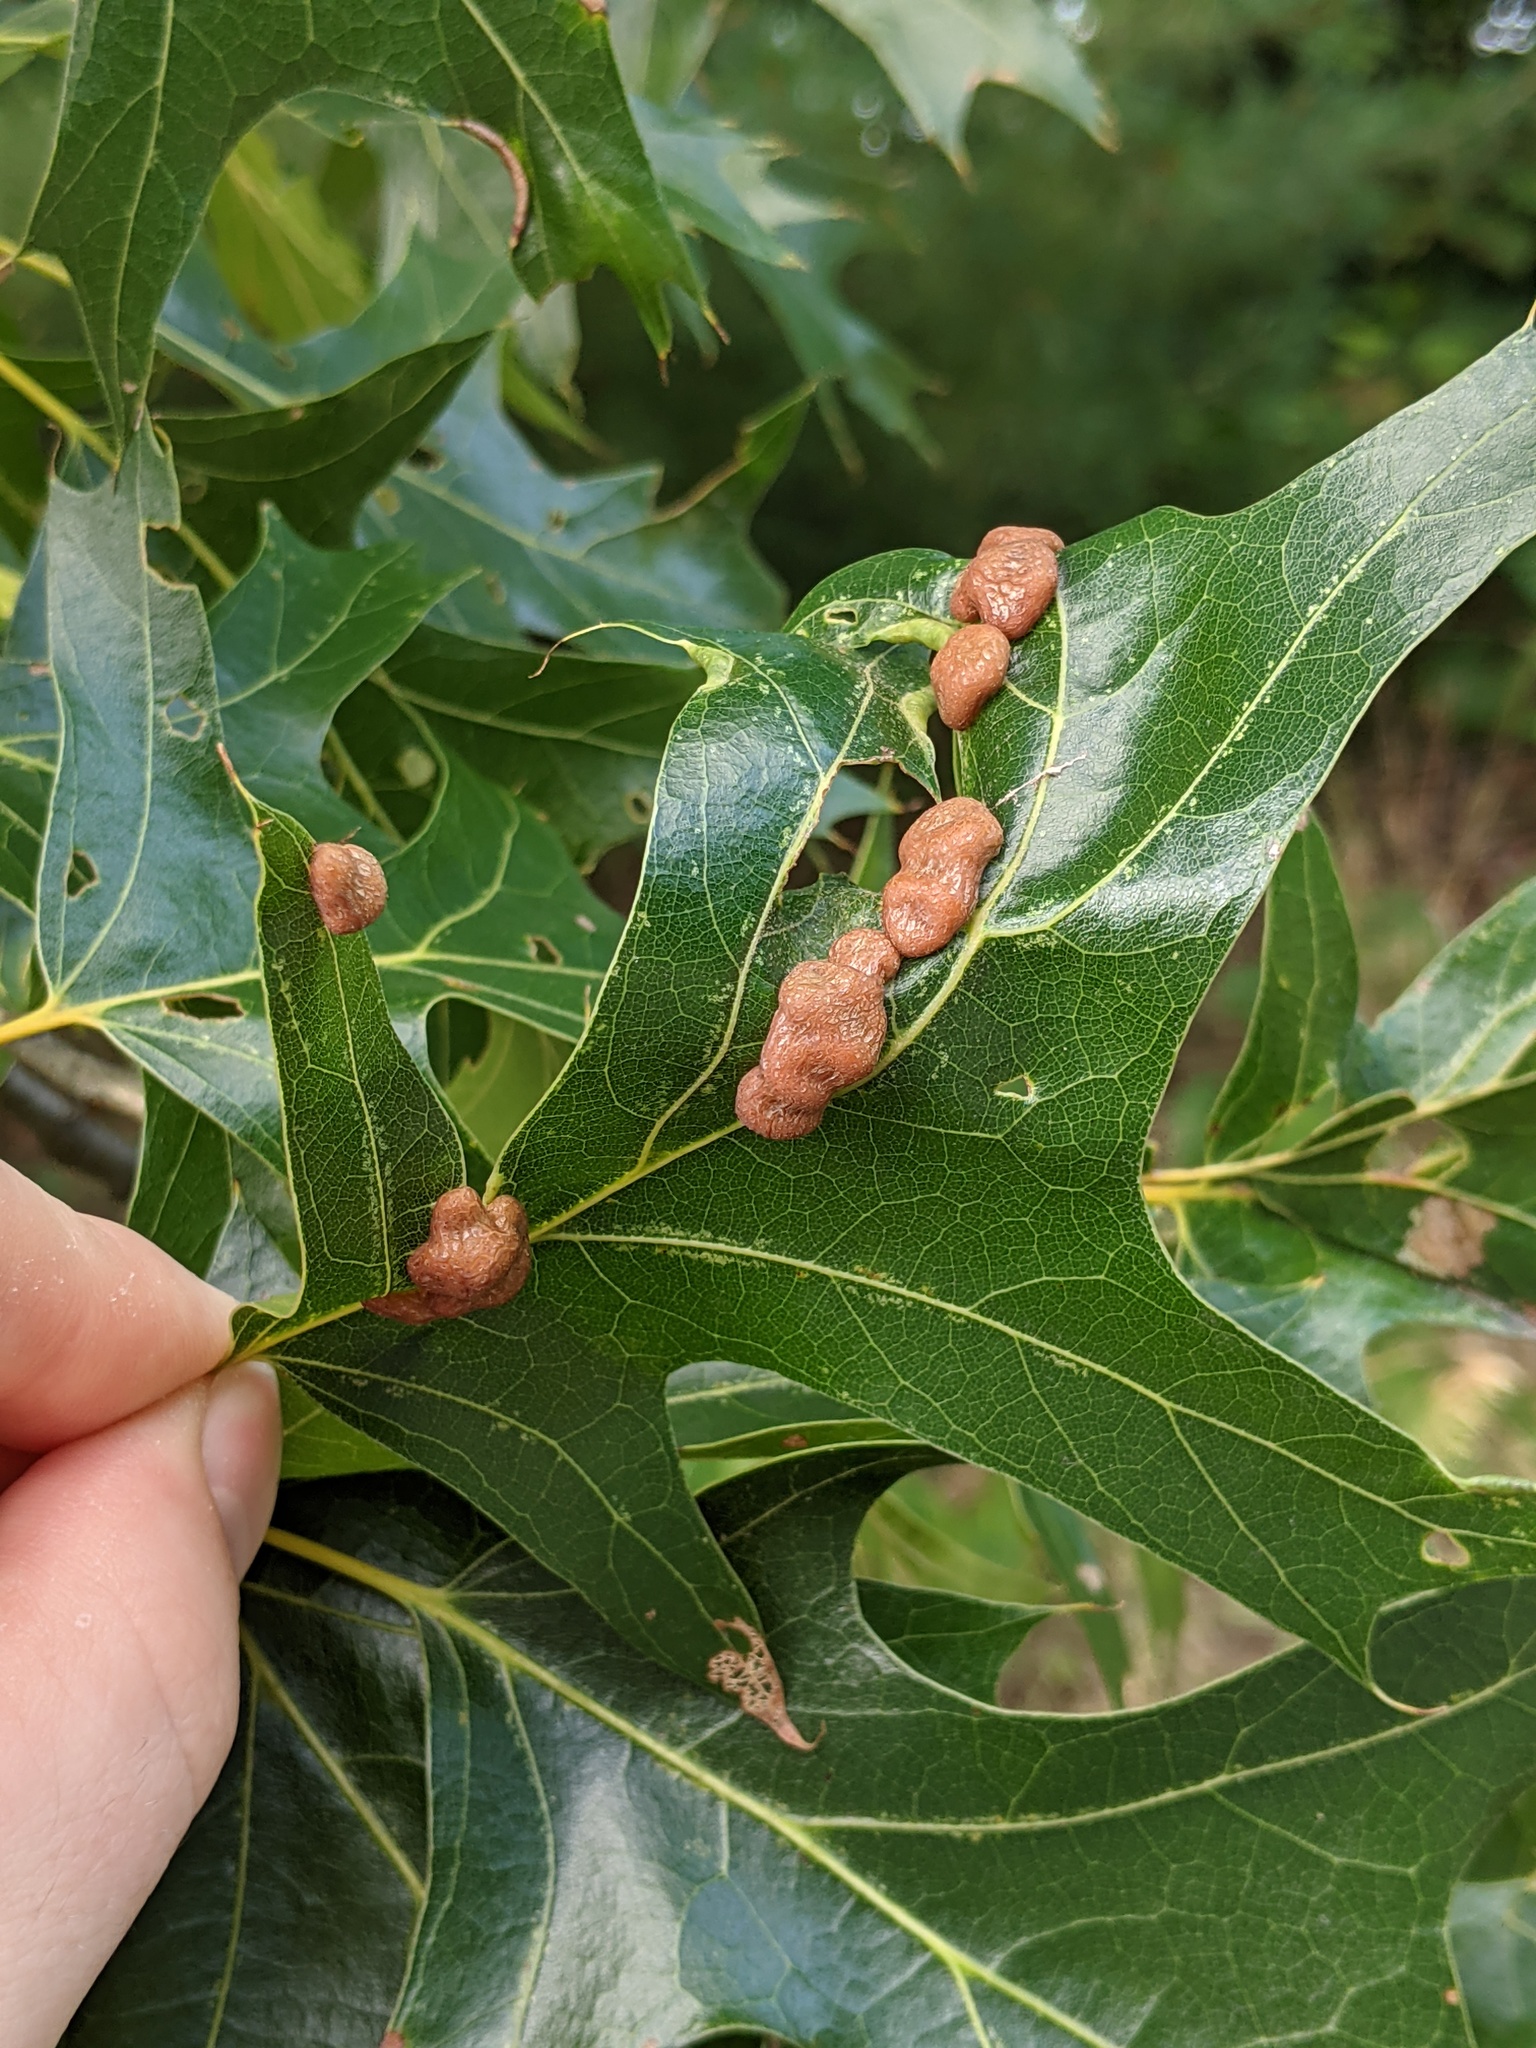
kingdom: Animalia
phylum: Arthropoda
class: Insecta
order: Diptera
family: Cecidomyiidae
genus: Polystepha
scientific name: Polystepha pilulae
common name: Oak leaf gall midge
